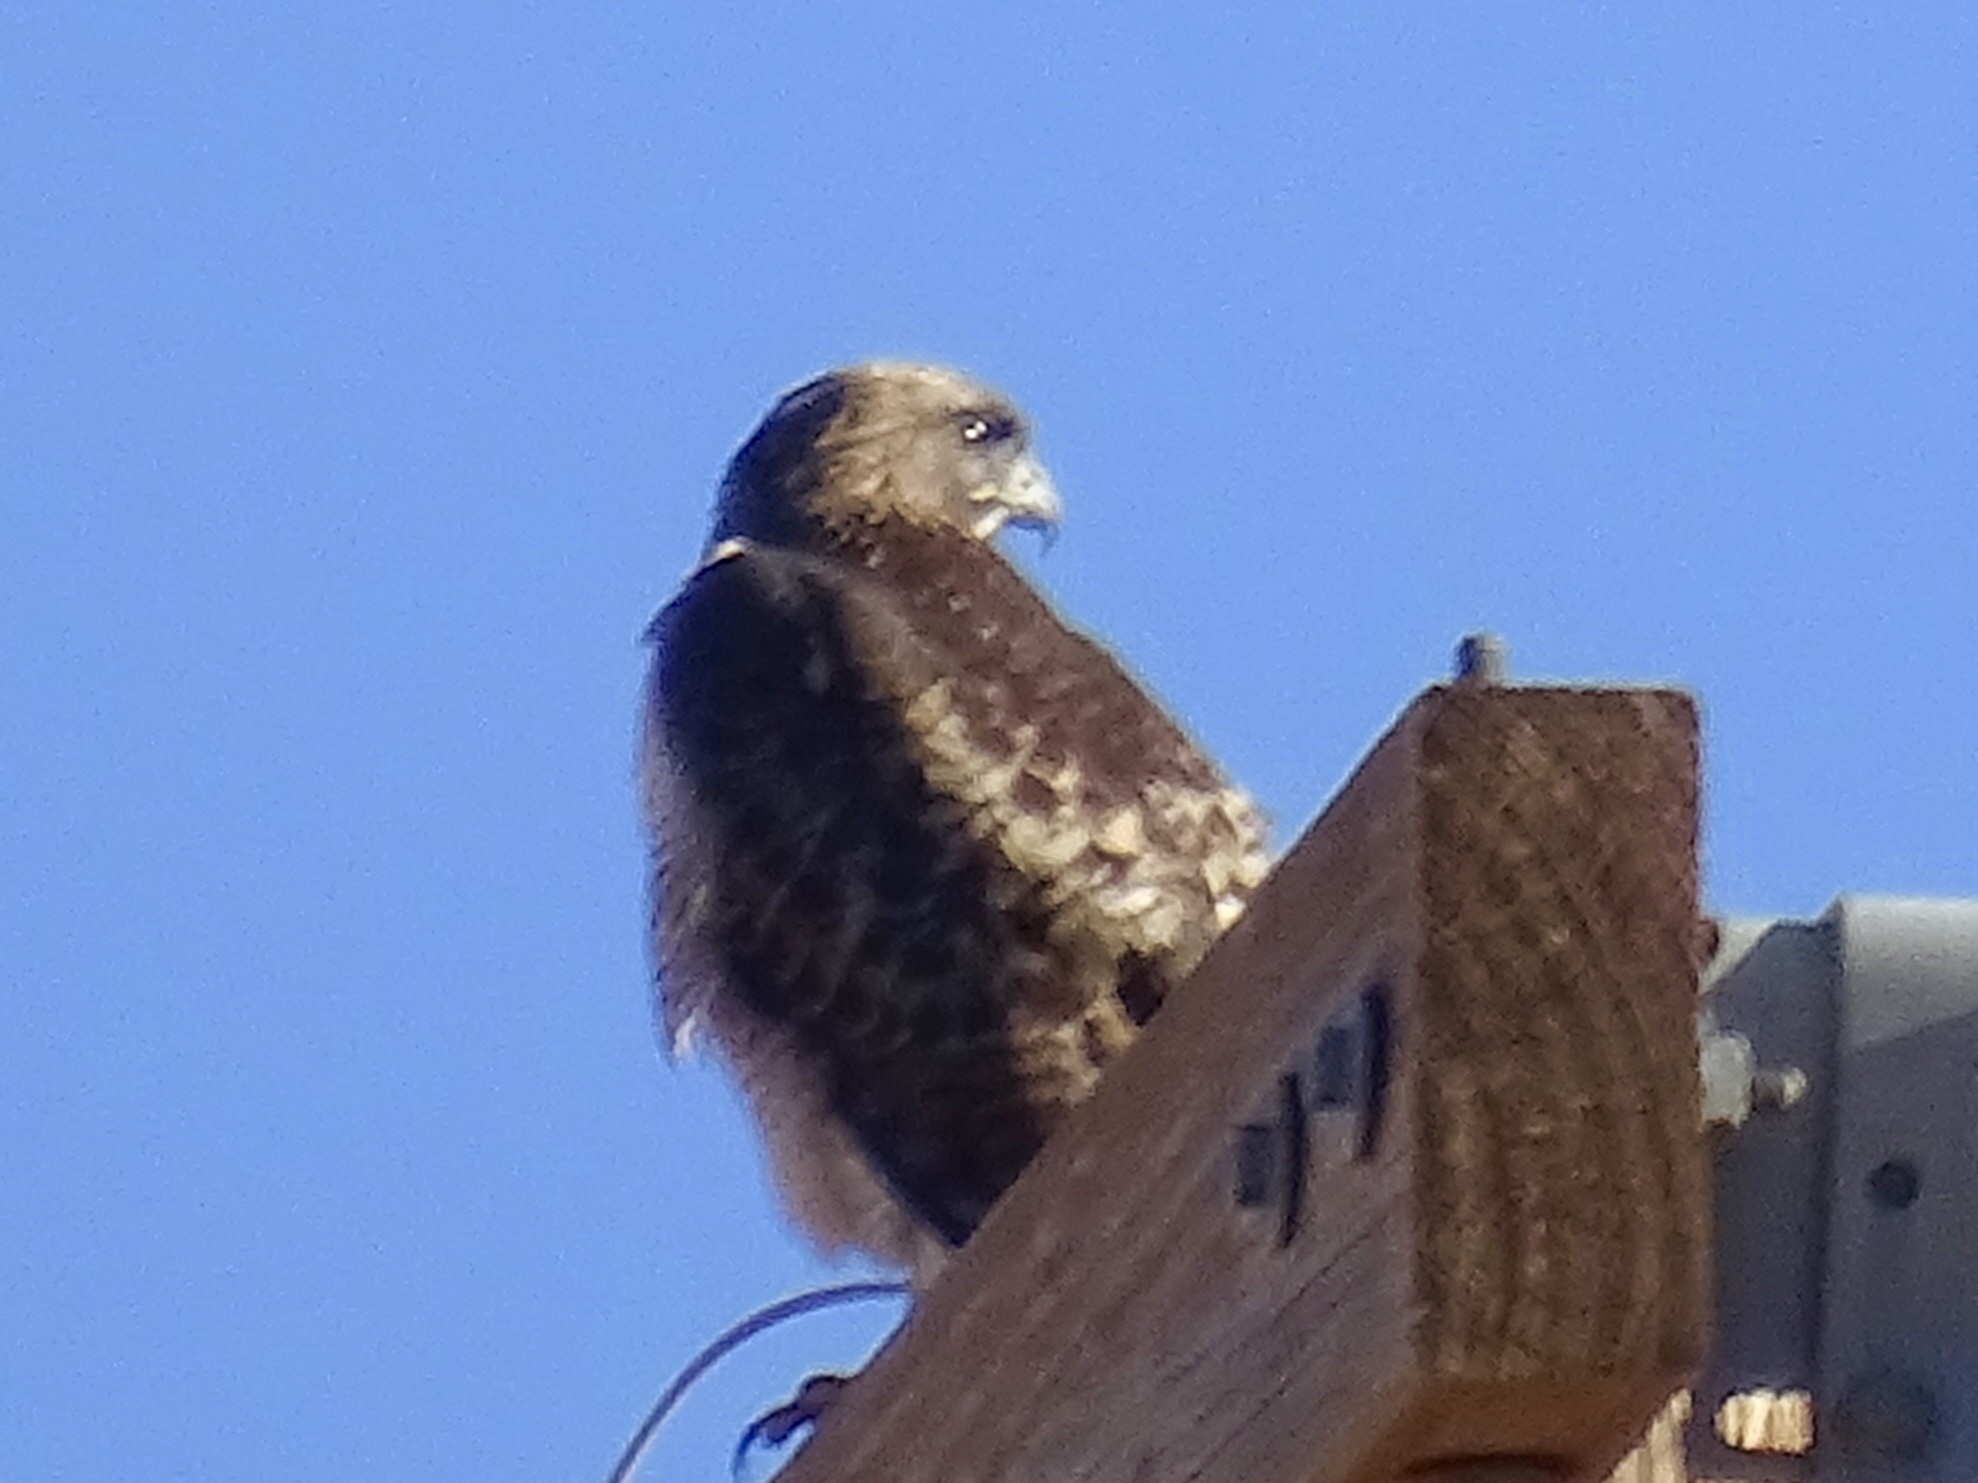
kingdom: Animalia
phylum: Chordata
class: Aves
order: Accipitriformes
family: Accipitridae
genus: Buteo
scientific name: Buteo jamaicensis
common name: Red-tailed hawk
